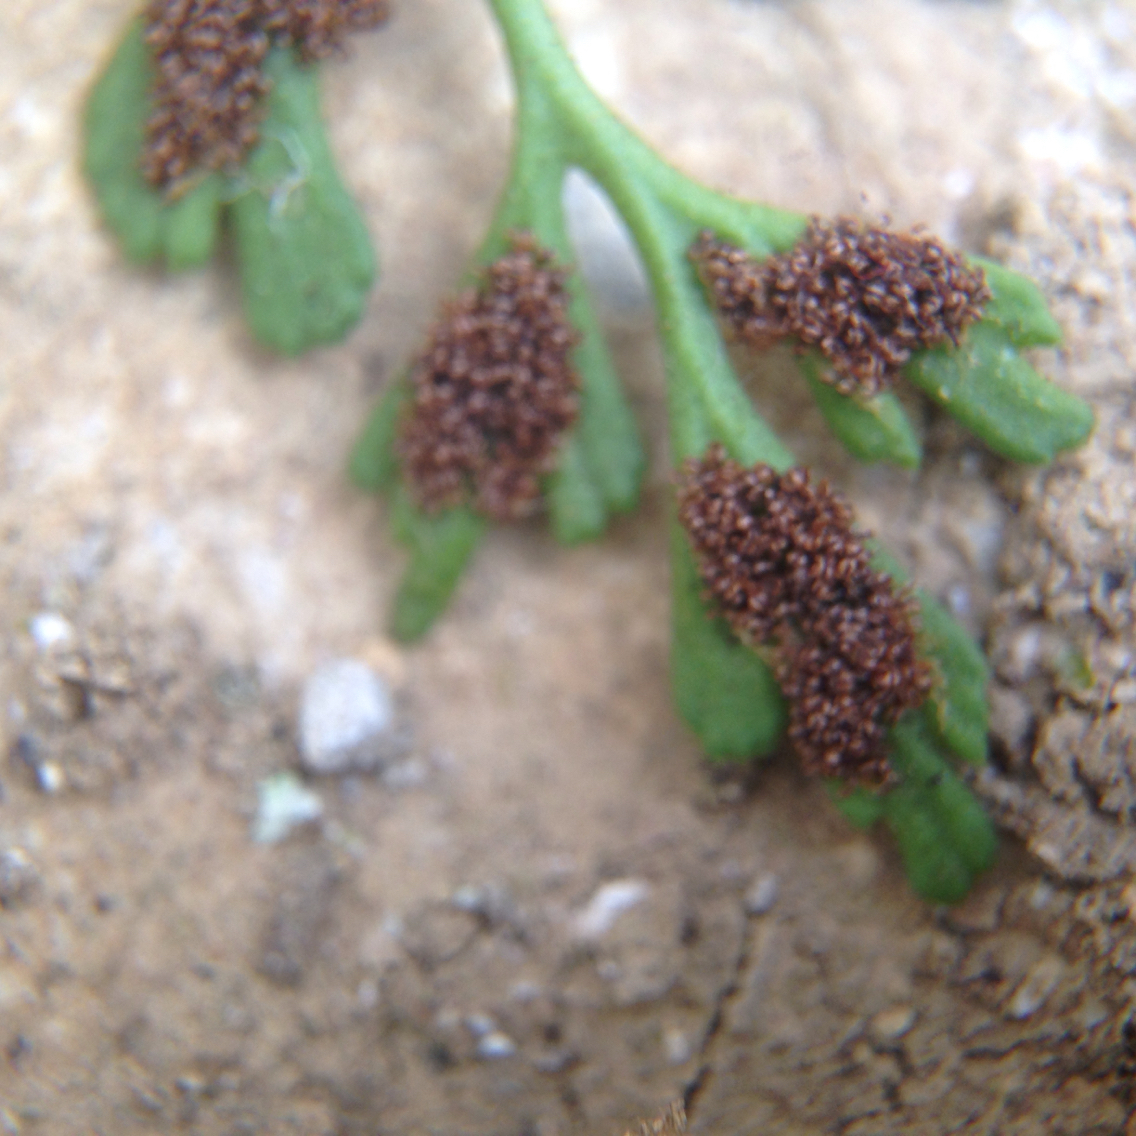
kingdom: Plantae
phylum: Tracheophyta
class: Polypodiopsida
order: Polypodiales
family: Aspleniaceae
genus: Asplenium
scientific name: Asplenium ruta-muraria
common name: Wall-rue
